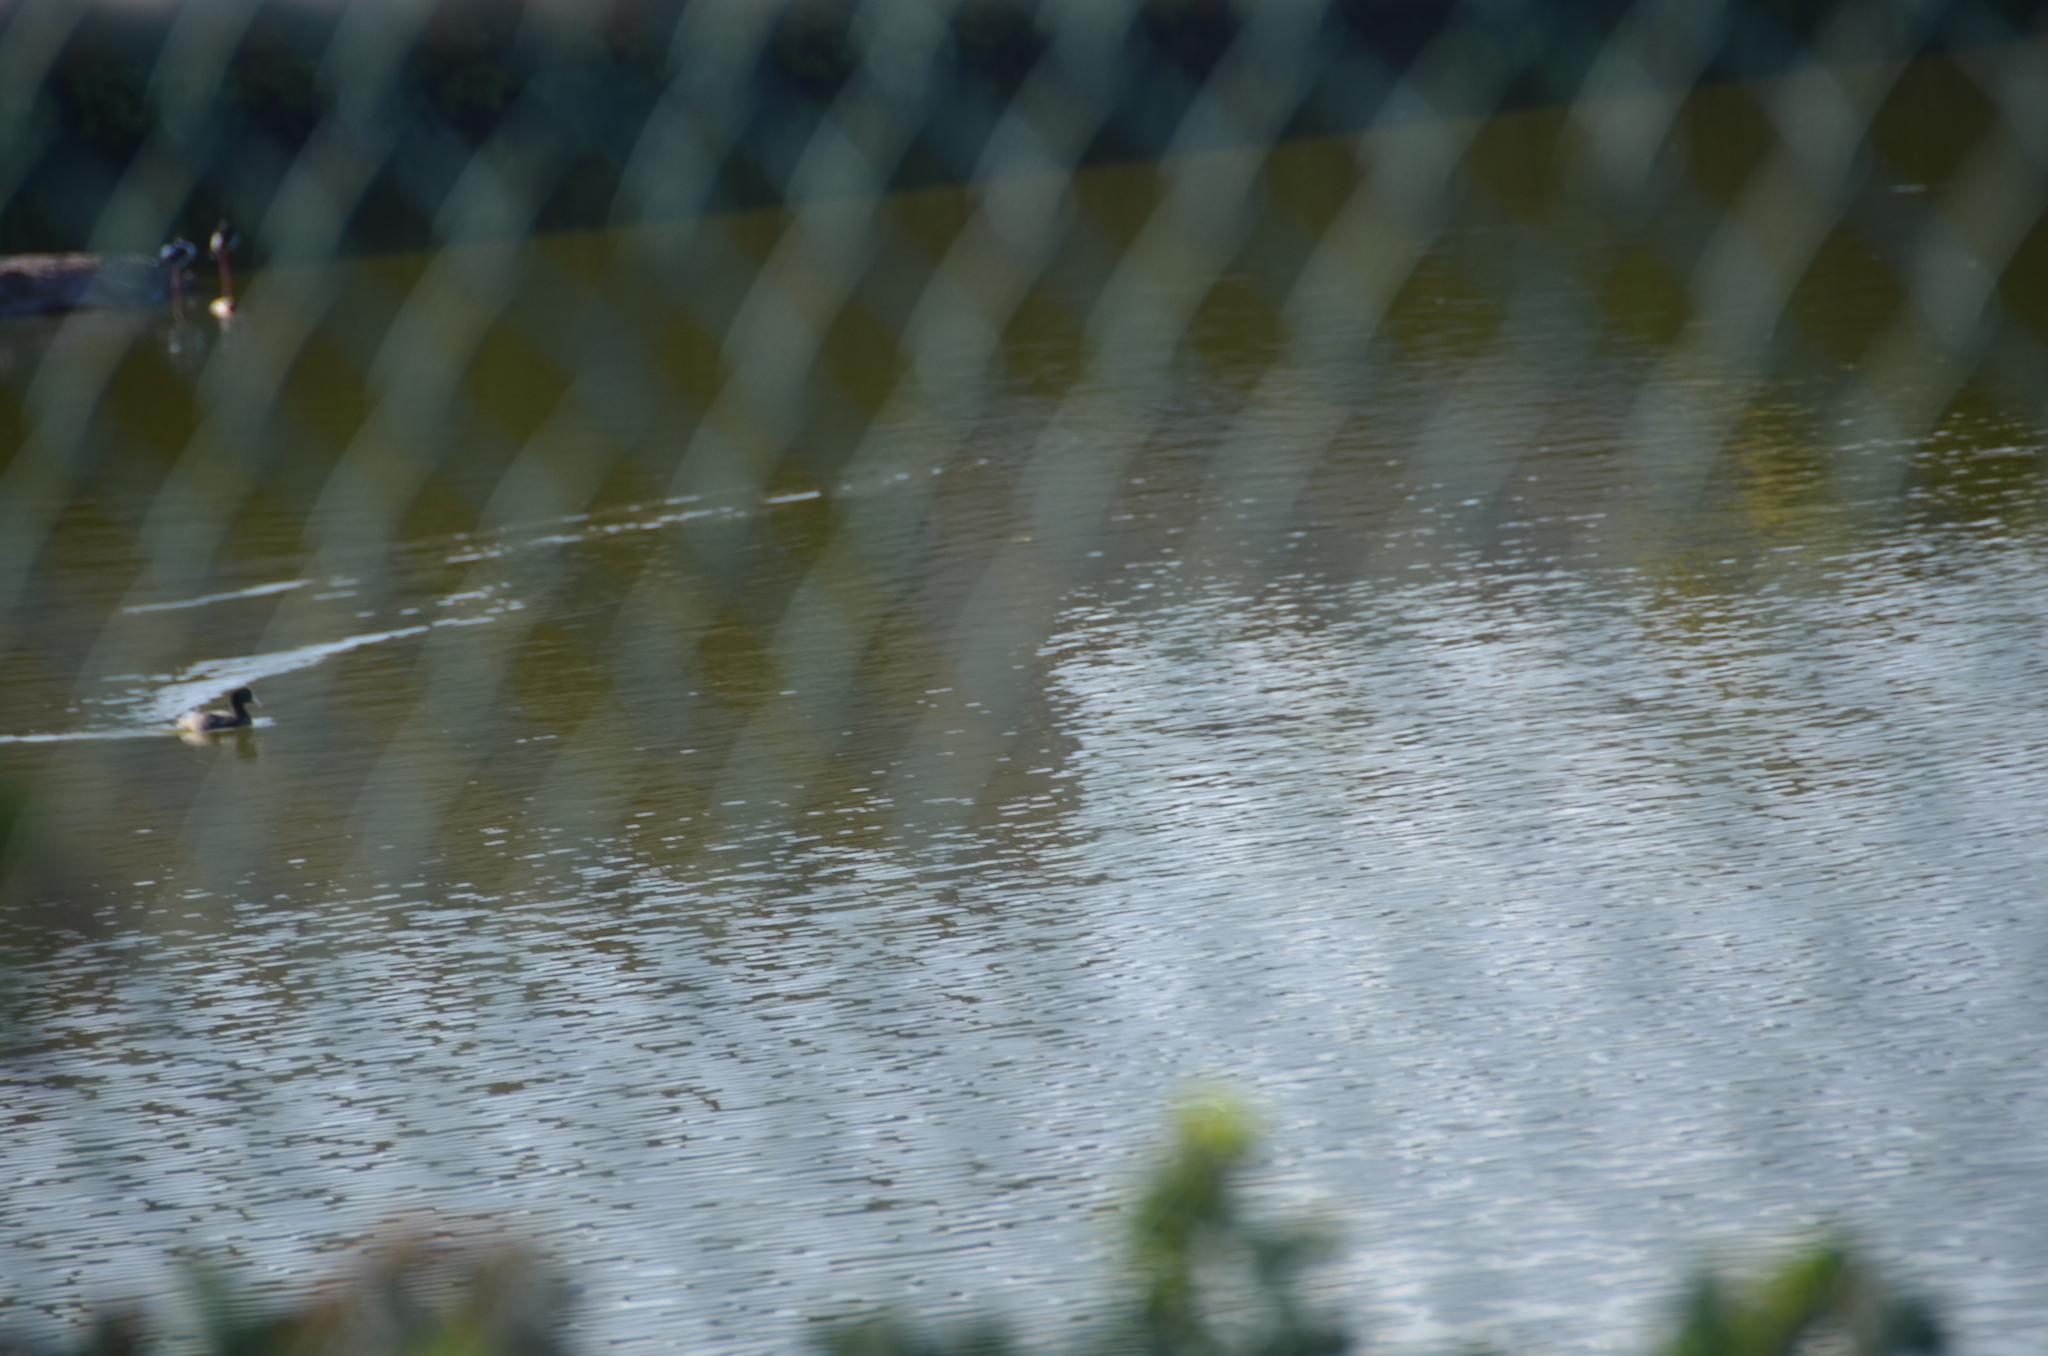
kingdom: Animalia
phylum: Chordata
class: Aves
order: Gruiformes
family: Rallidae
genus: Fulica
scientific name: Fulica alai
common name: Hawaiian coot
